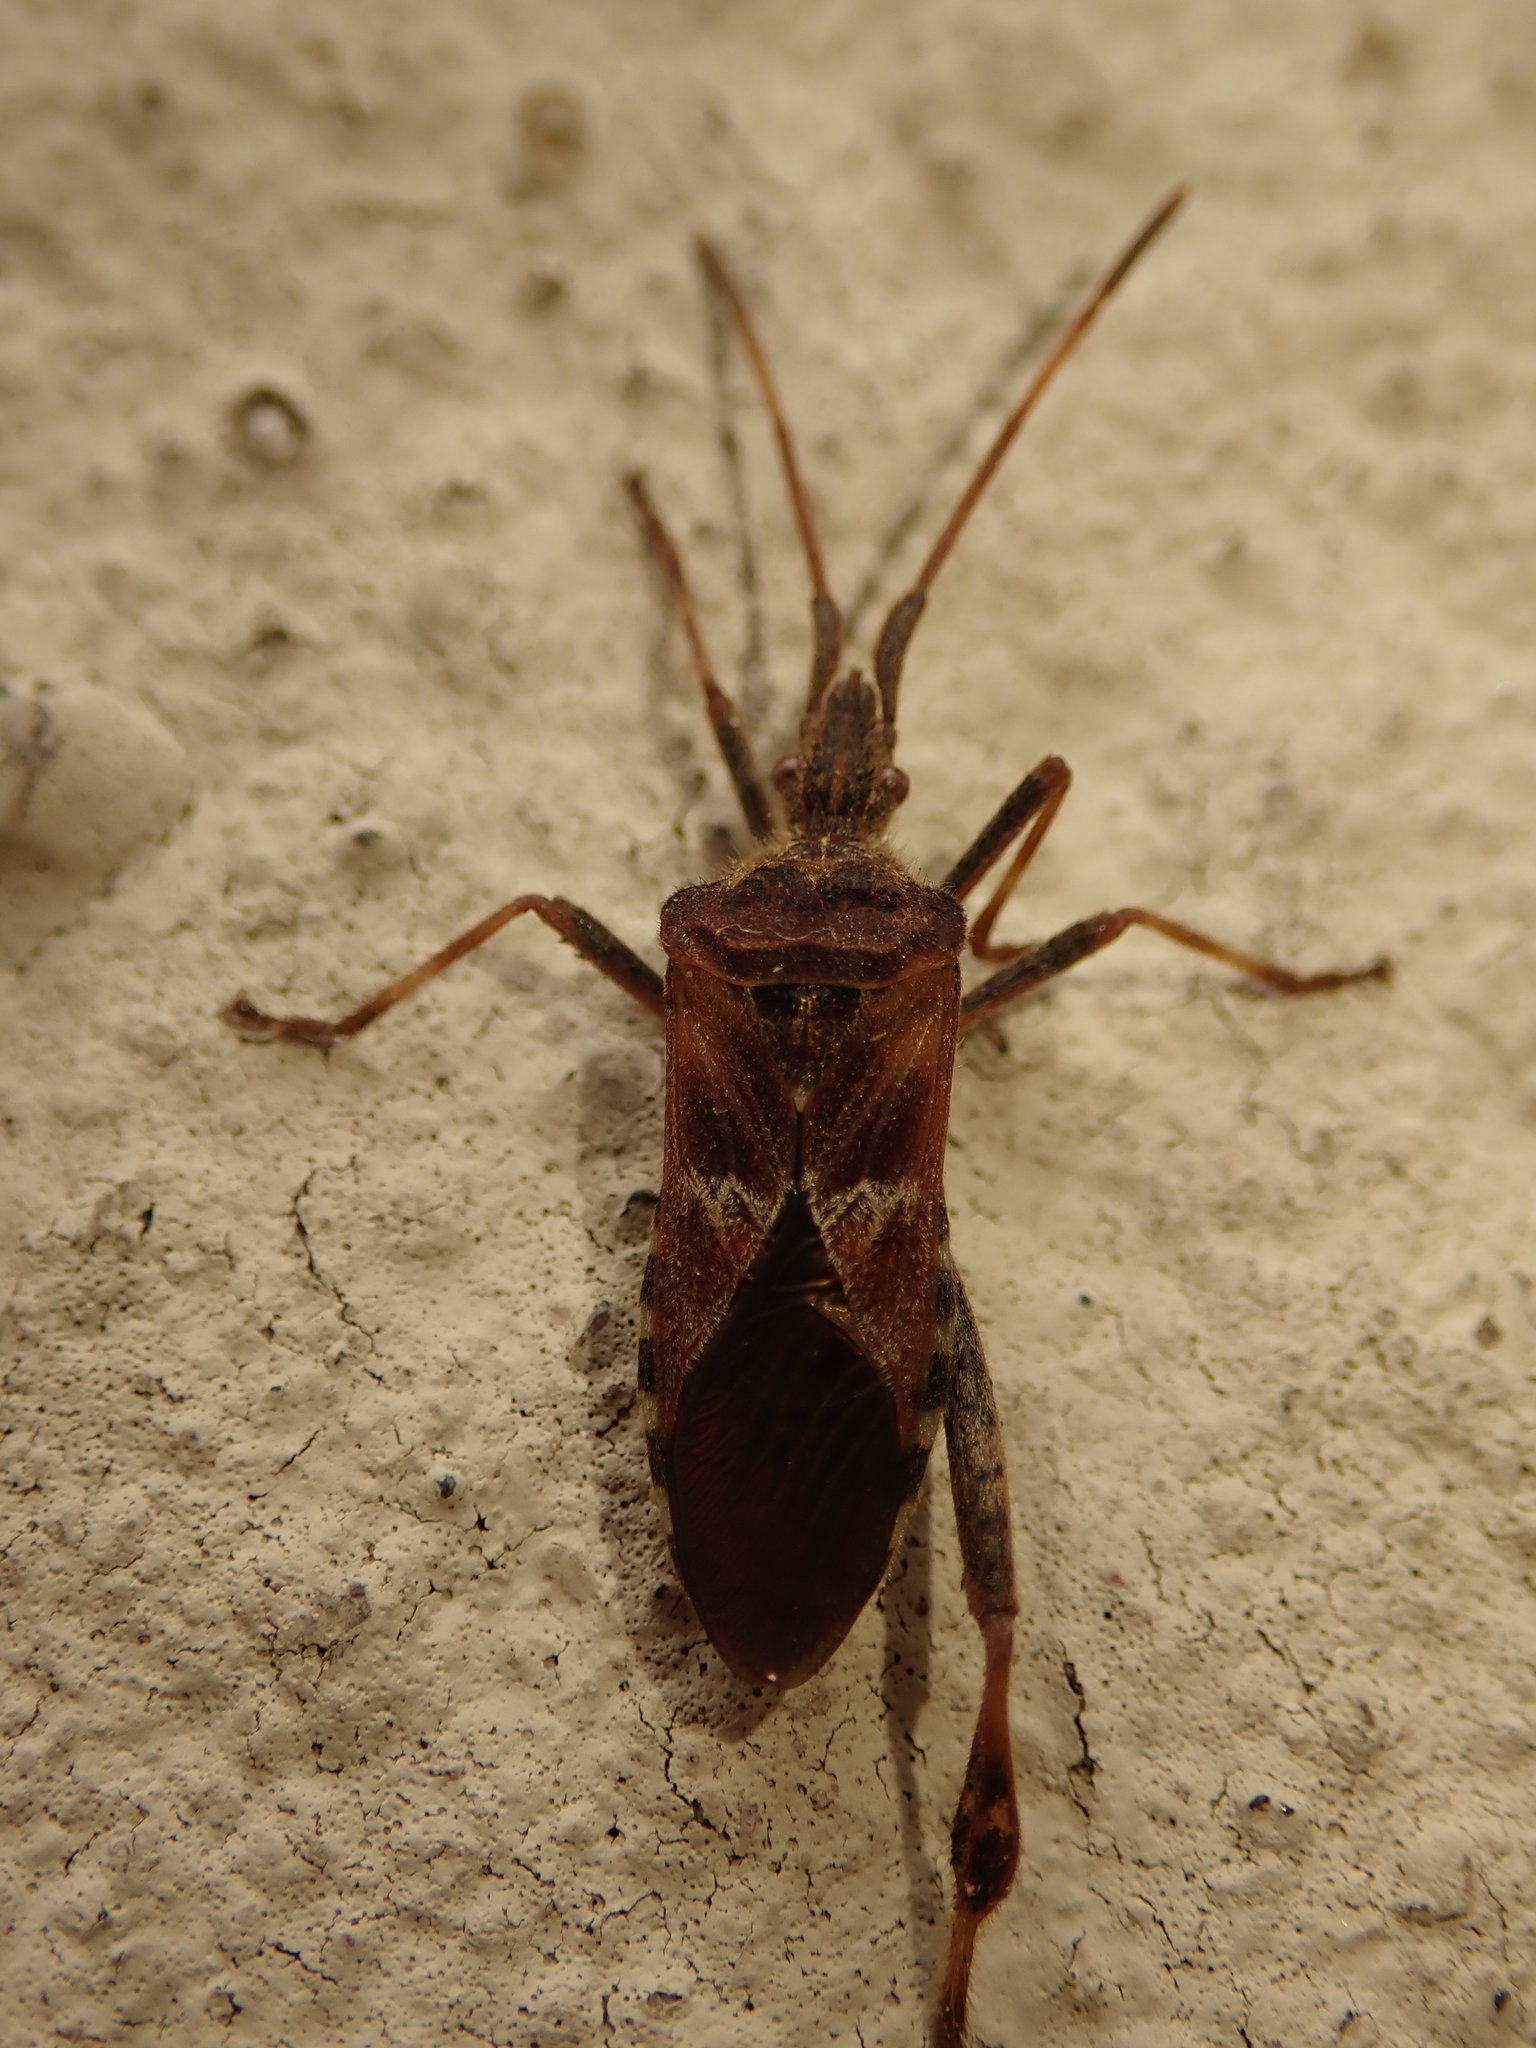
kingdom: Animalia
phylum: Arthropoda
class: Insecta
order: Hemiptera
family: Coreidae
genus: Leptoglossus
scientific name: Leptoglossus occidentalis
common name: Western conifer-seed bug
